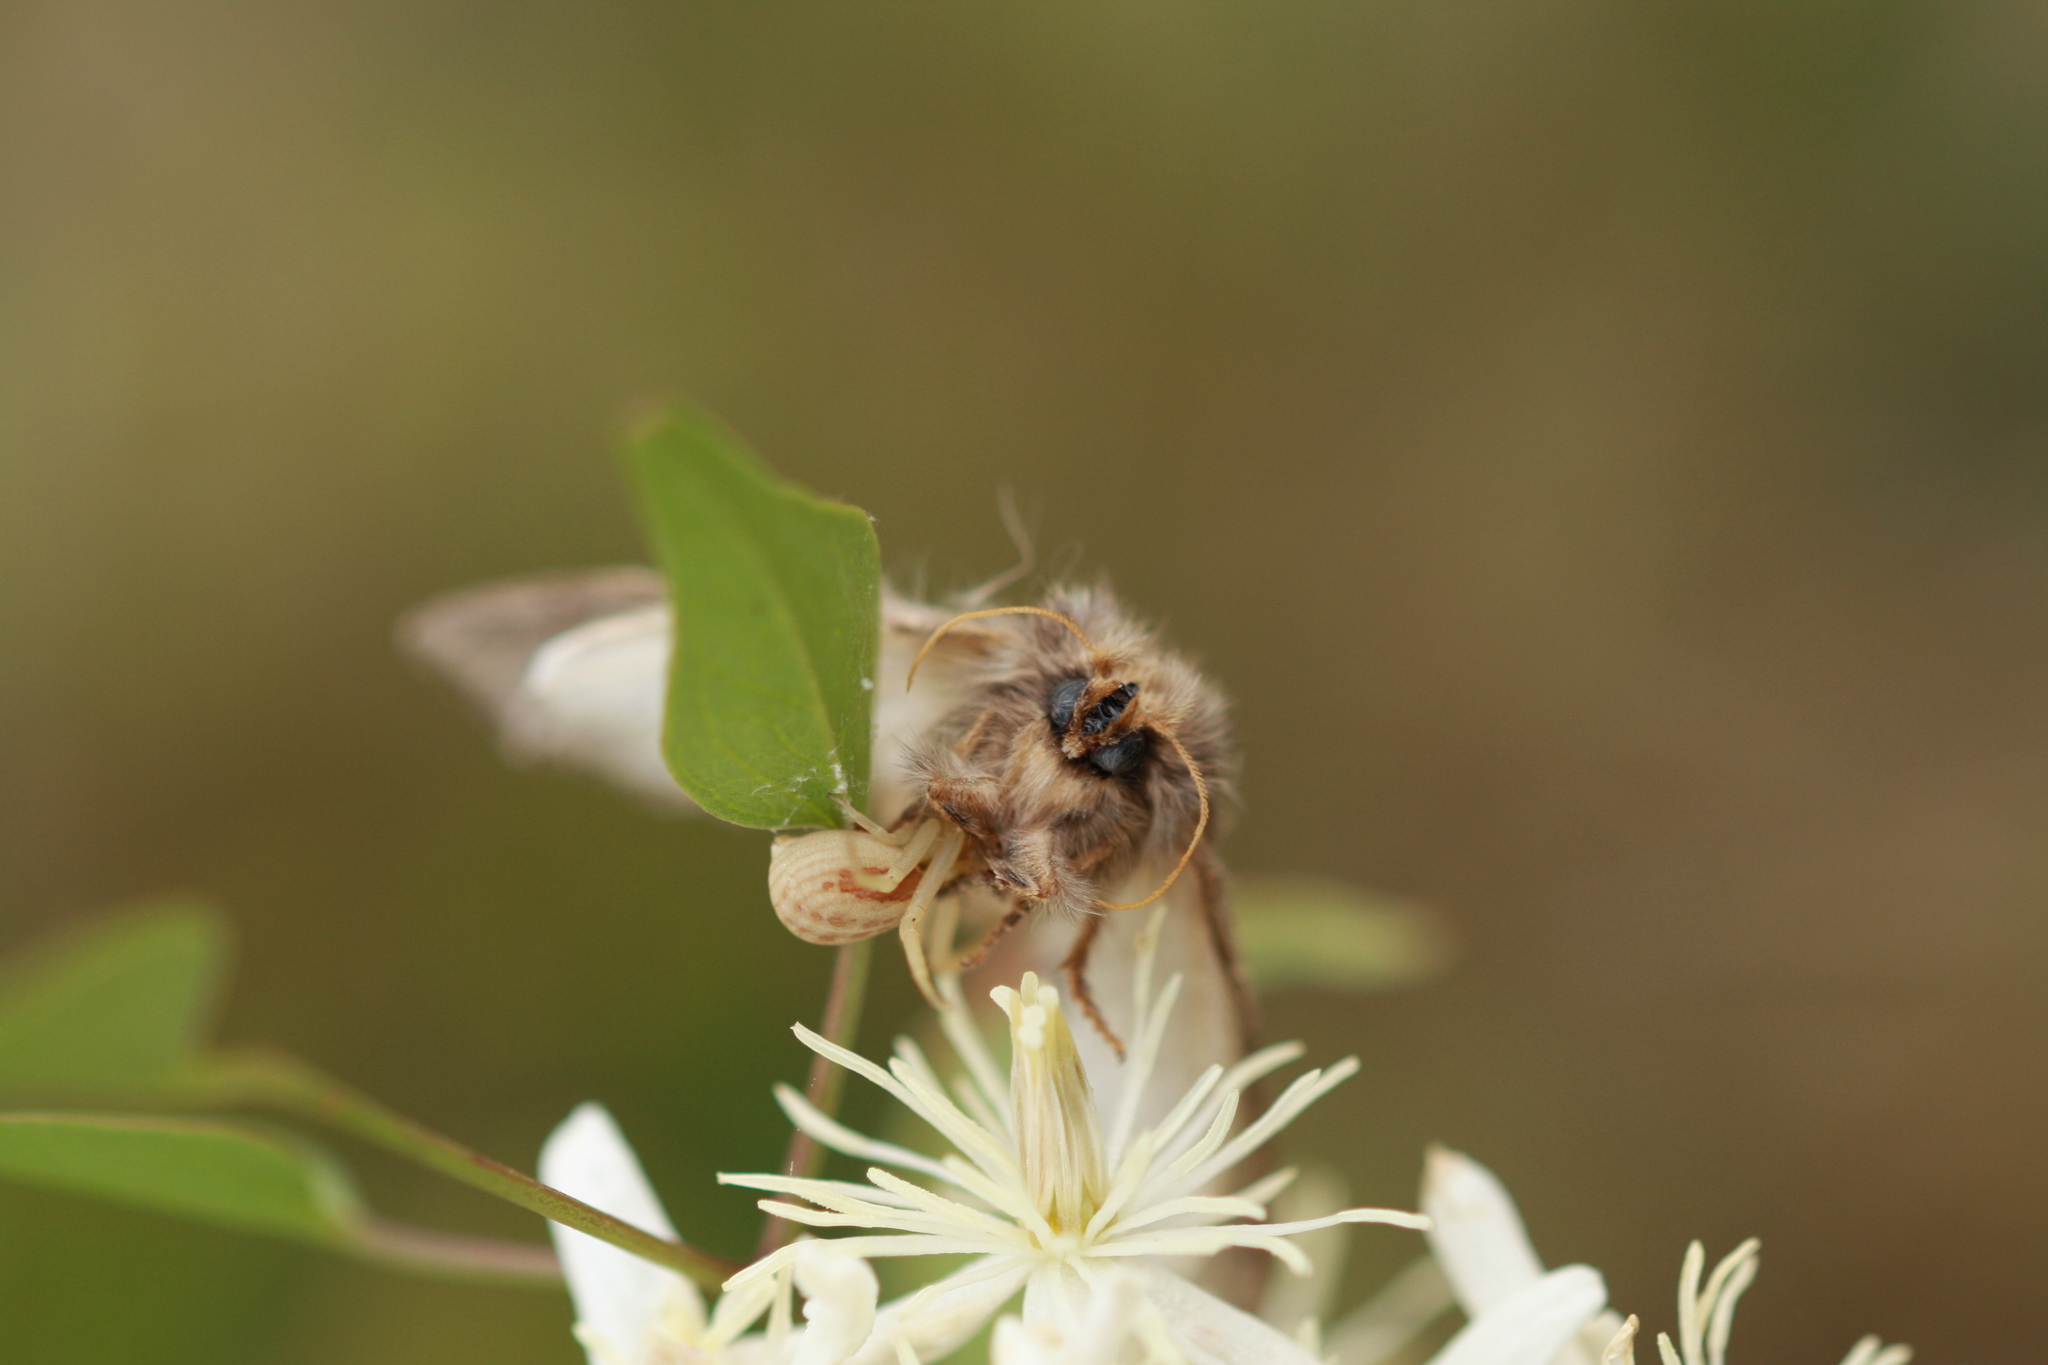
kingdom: Animalia
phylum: Arthropoda
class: Insecta
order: Lepidoptera
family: Notodontidae
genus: Thaumetopoea
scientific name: Thaumetopoea pityocampa
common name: Pine processionary
